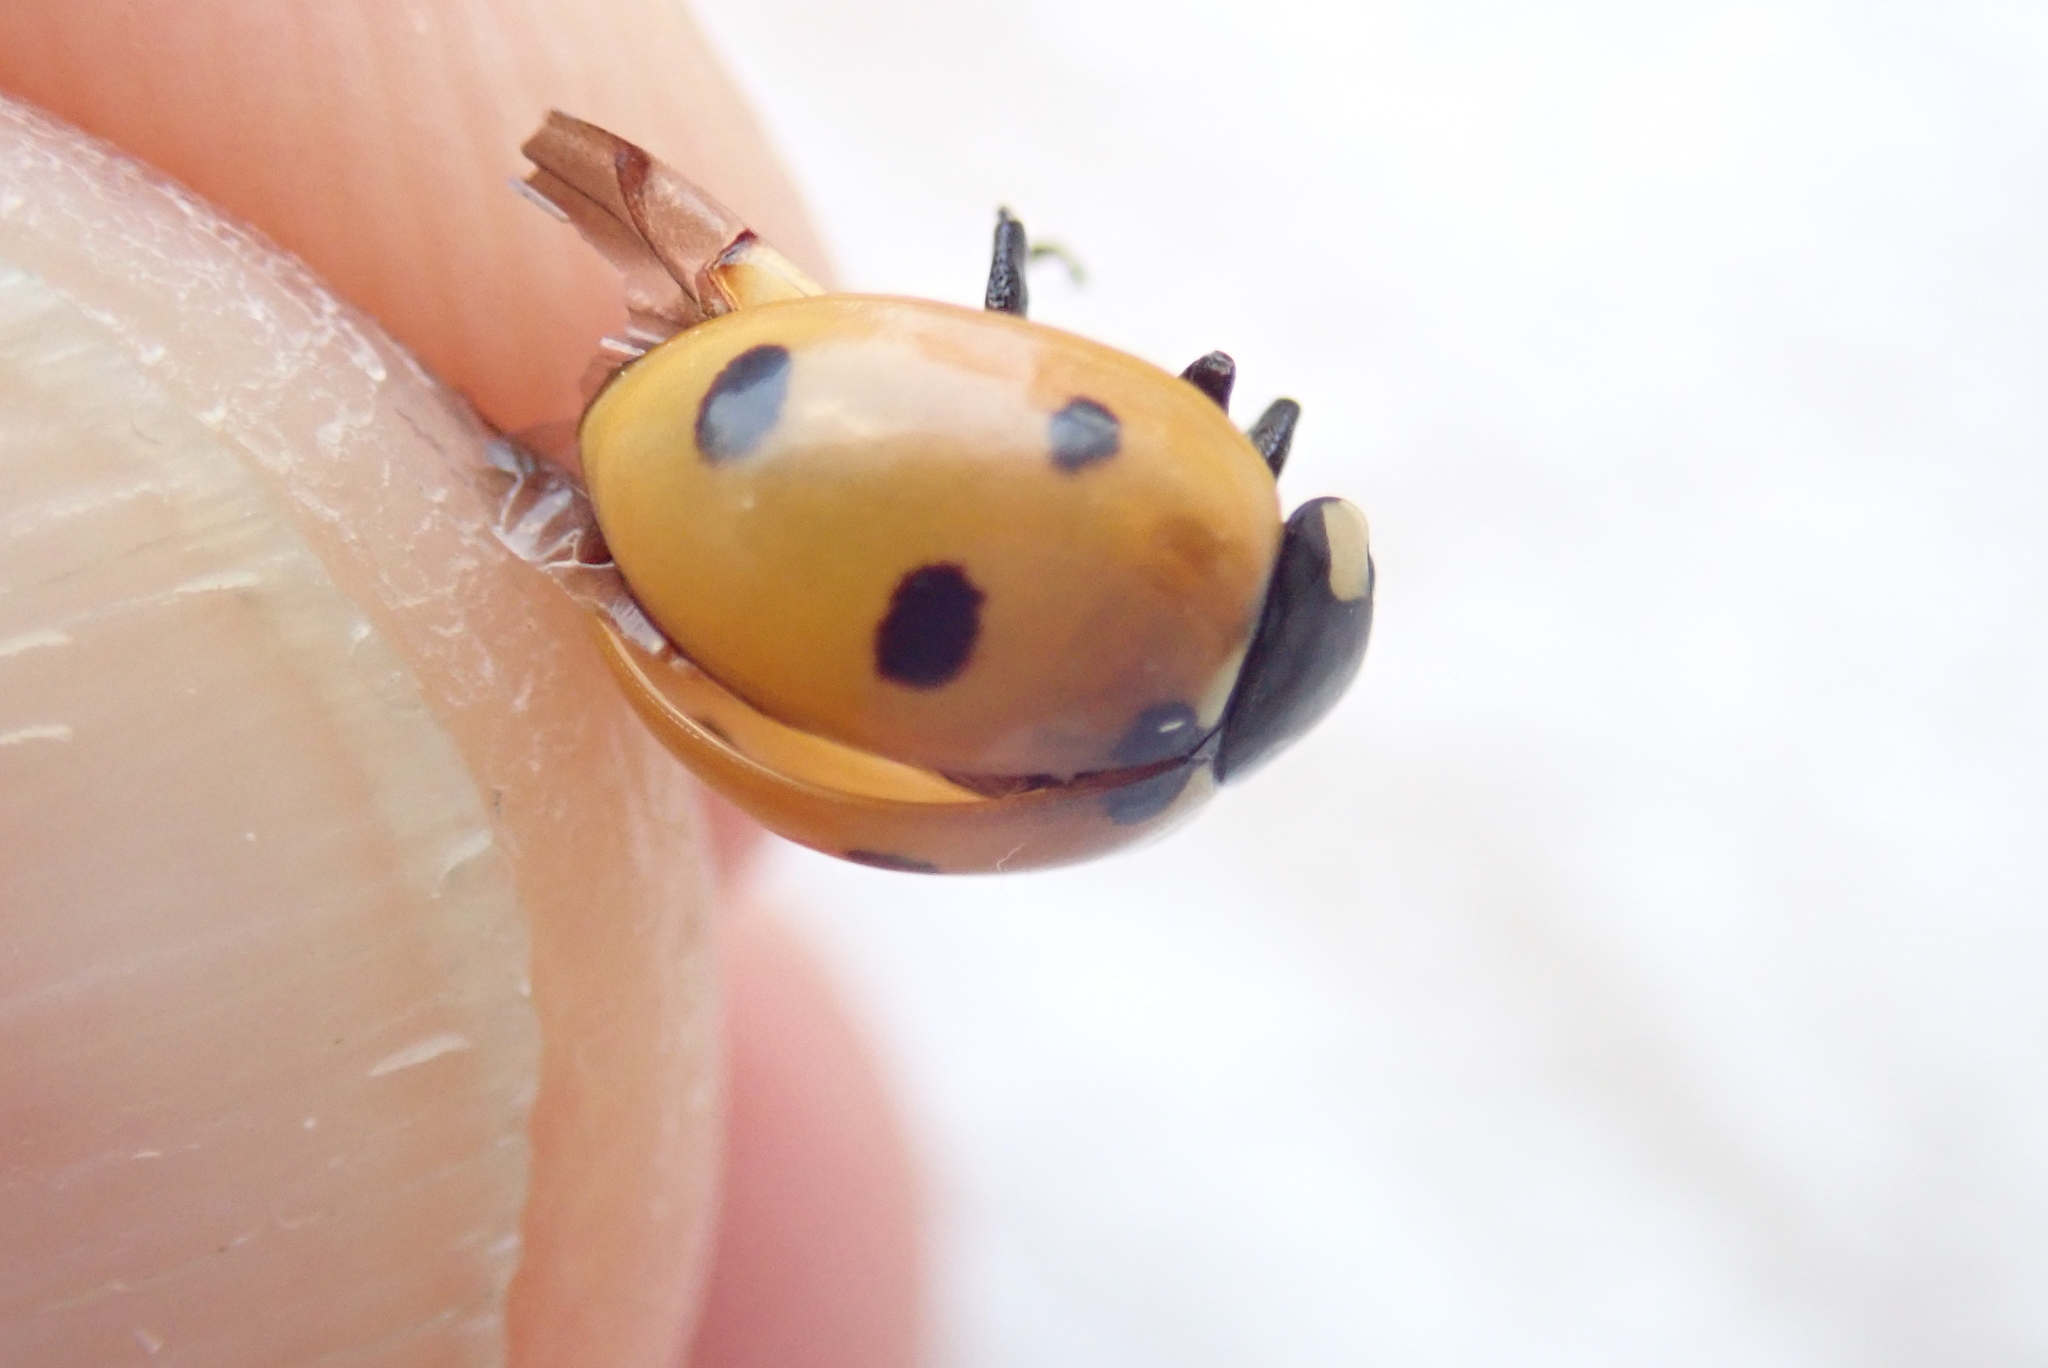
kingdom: Animalia
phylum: Arthropoda
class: Insecta
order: Coleoptera
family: Coccinellidae
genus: Coccinella
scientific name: Coccinella septempunctata
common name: Sevenspotted lady beetle
